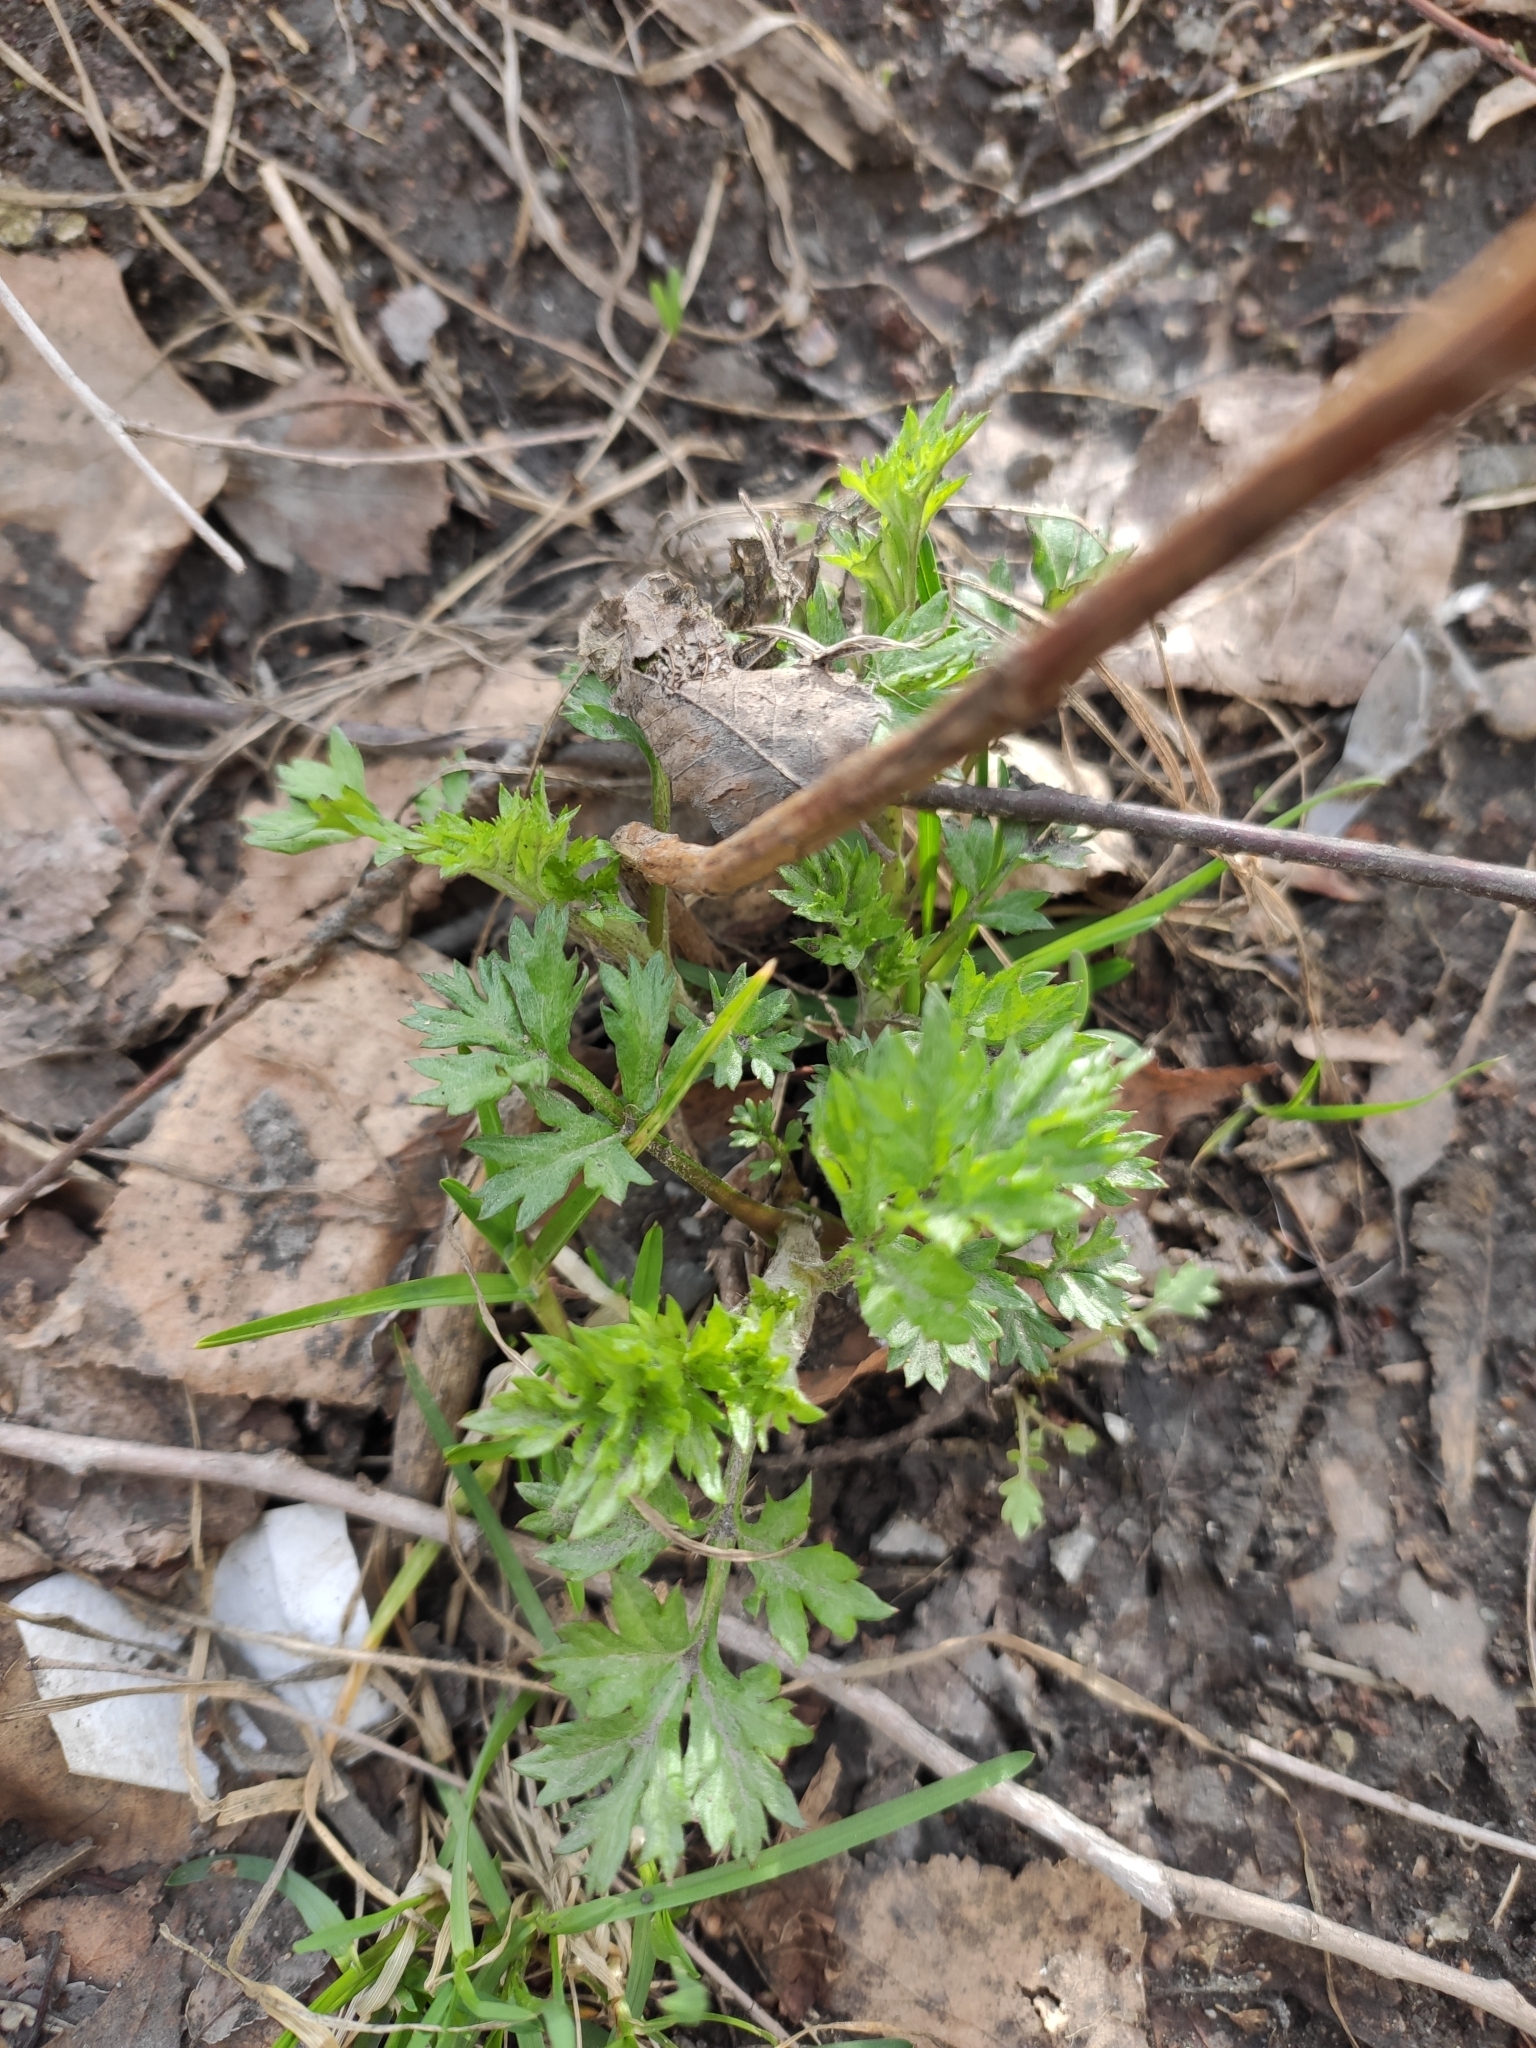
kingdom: Plantae
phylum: Tracheophyta
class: Magnoliopsida
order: Asterales
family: Asteraceae
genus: Artemisia
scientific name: Artemisia vulgaris
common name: Mugwort
